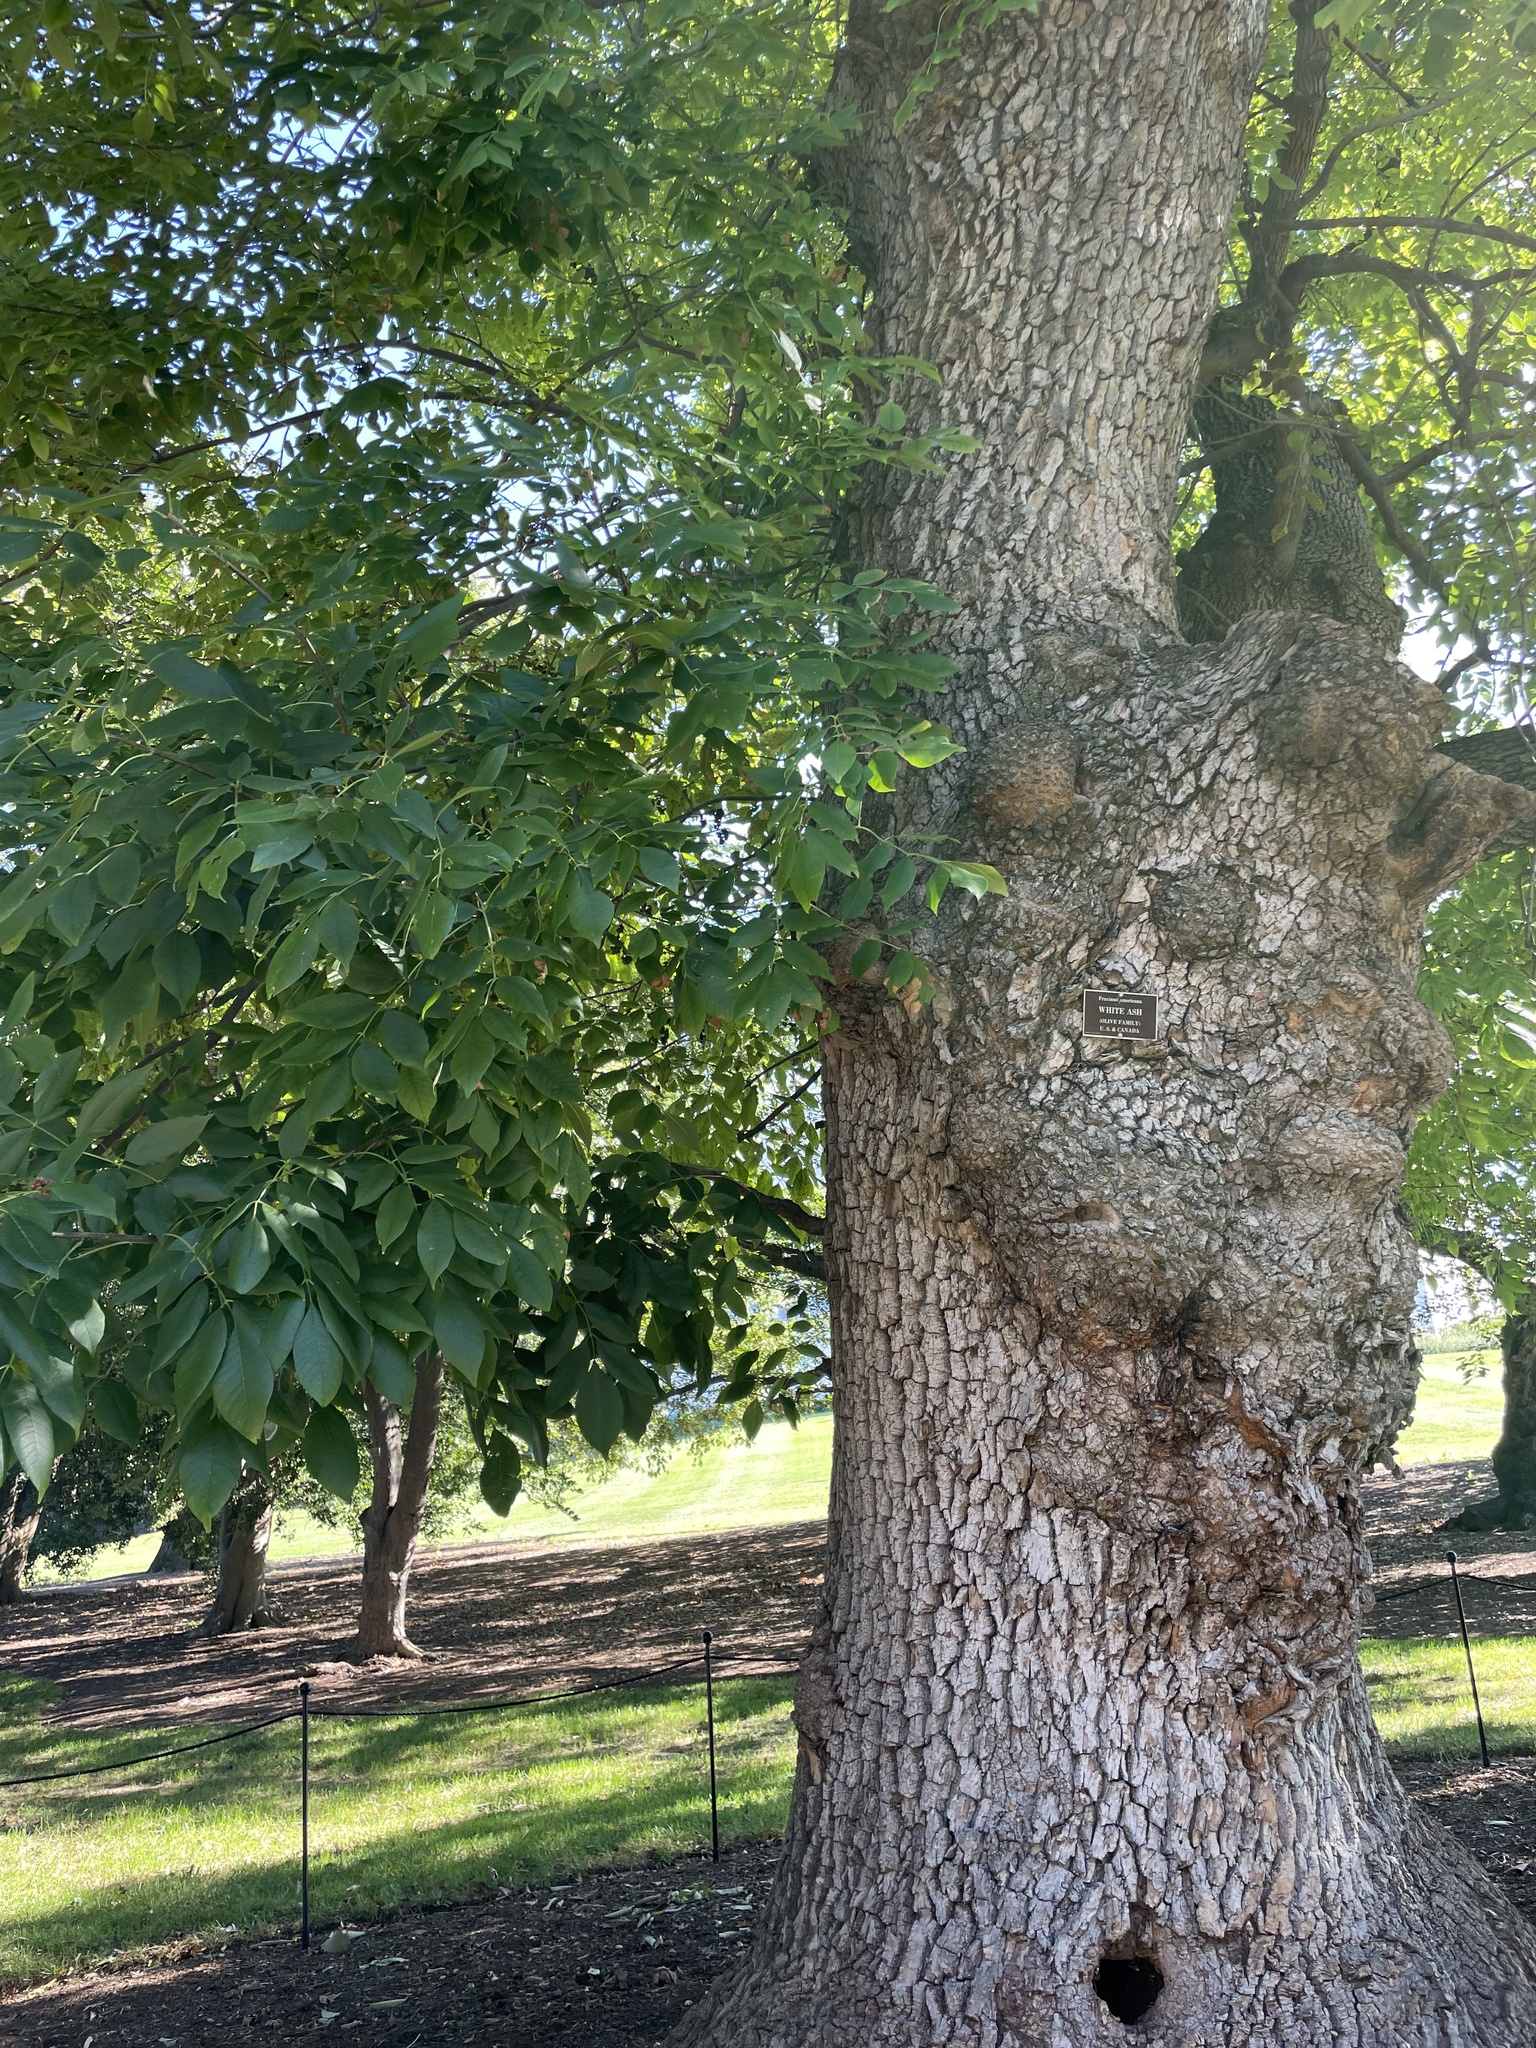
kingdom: Plantae
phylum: Tracheophyta
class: Magnoliopsida
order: Lamiales
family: Oleaceae
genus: Fraxinus
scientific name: Fraxinus americana
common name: White ash
